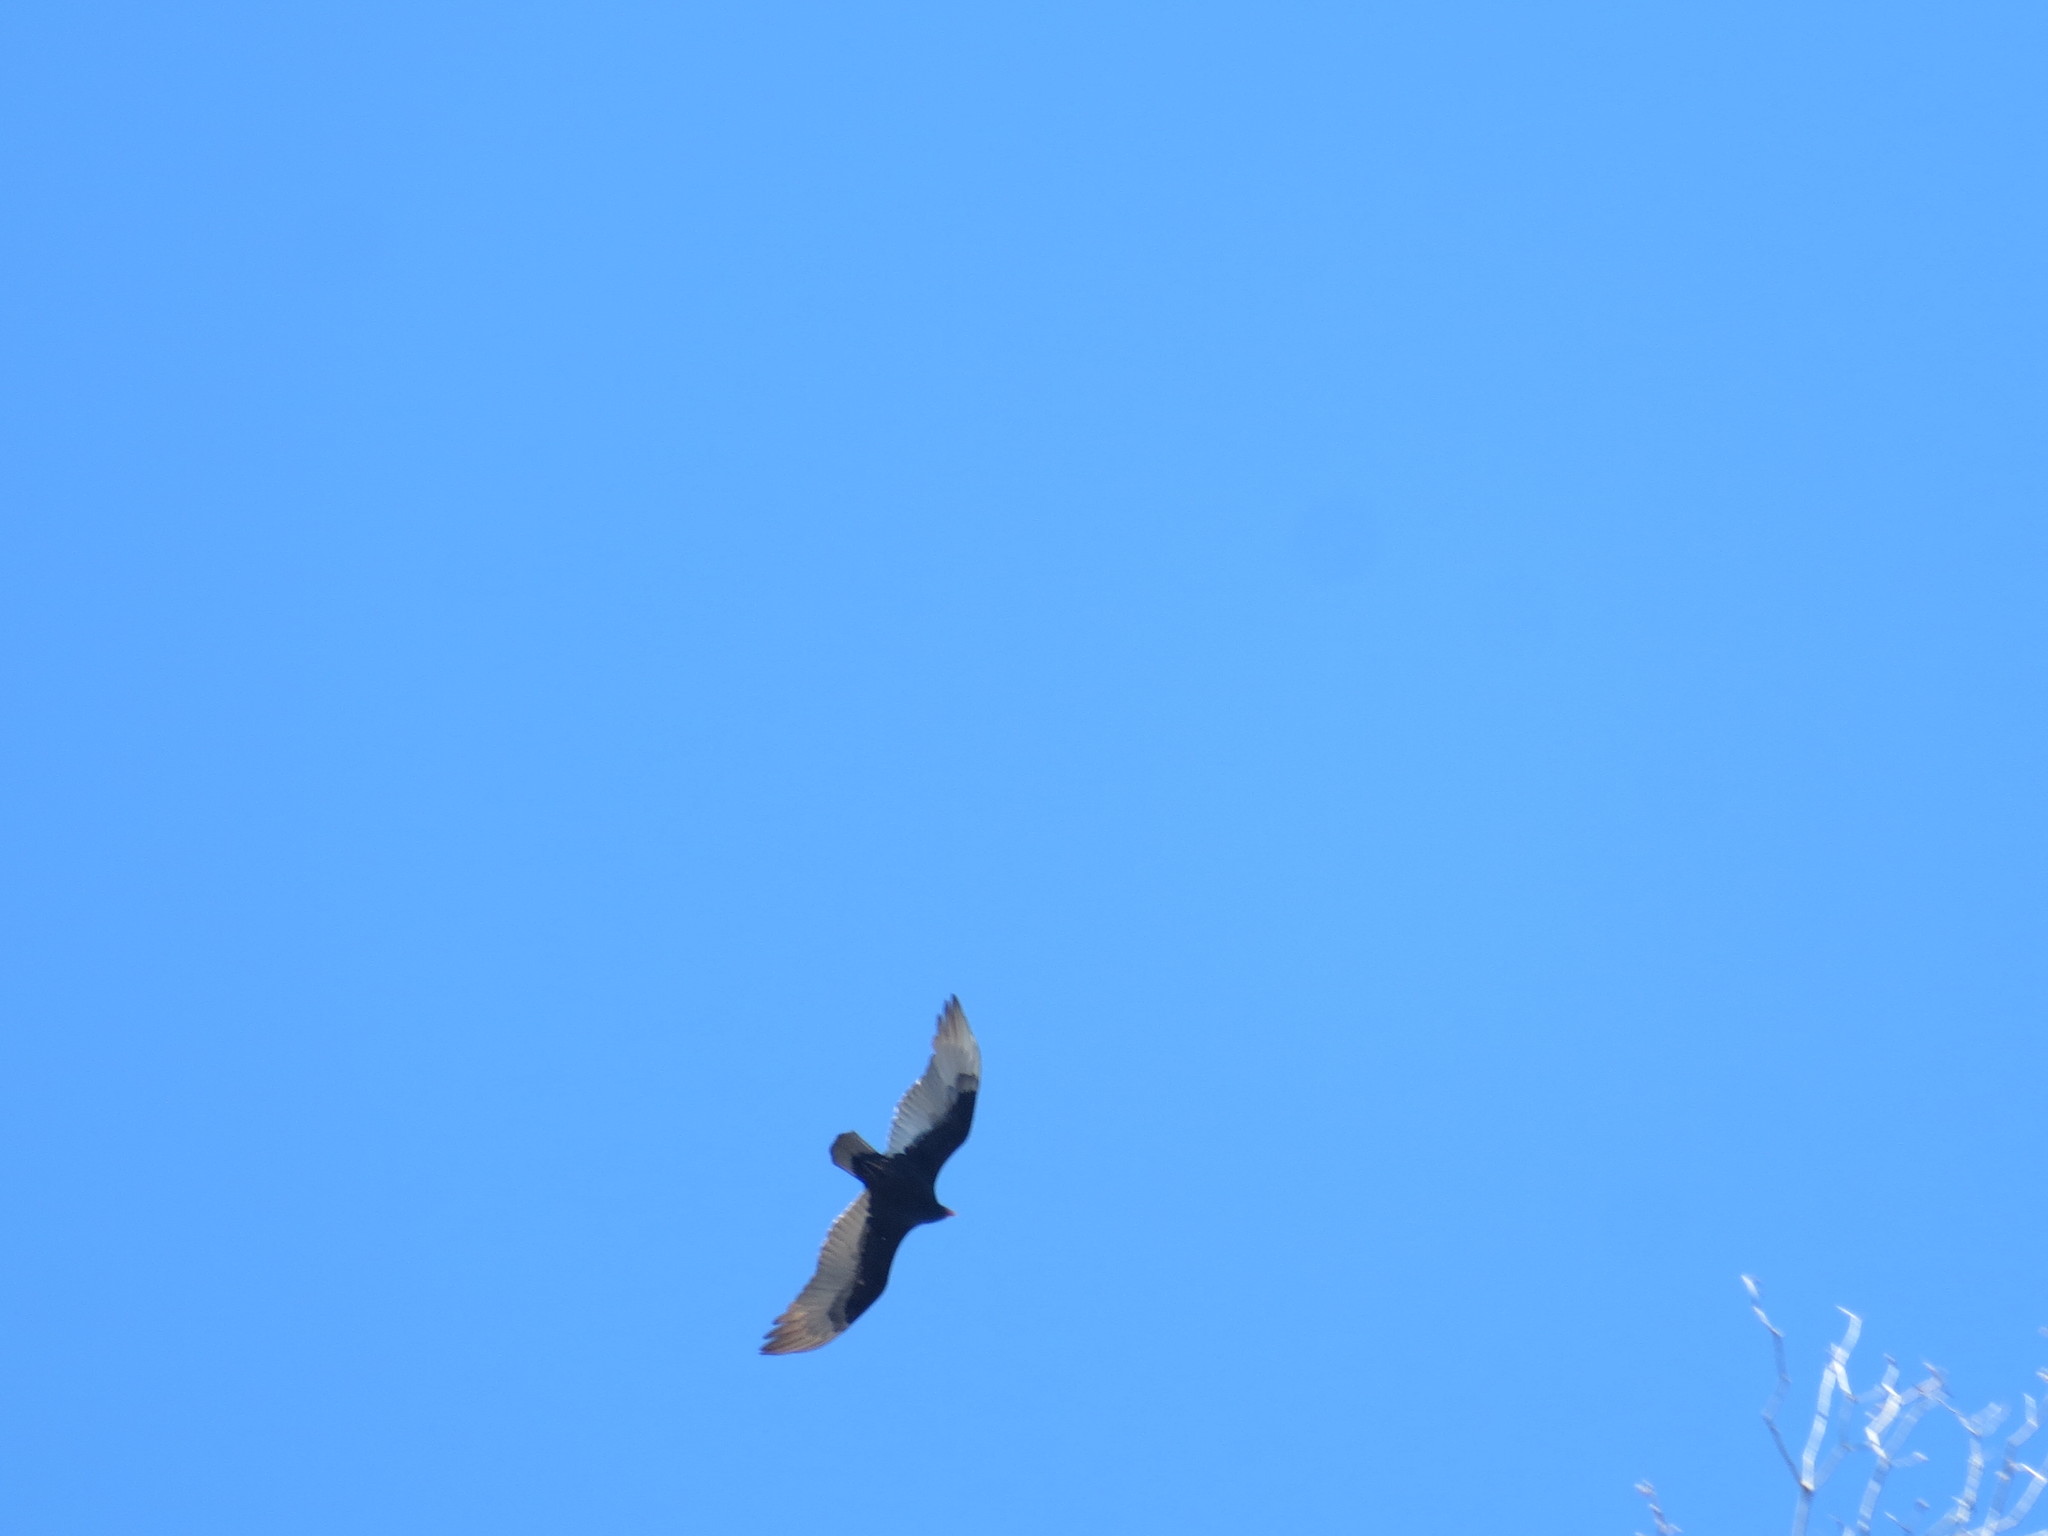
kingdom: Animalia
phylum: Chordata
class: Aves
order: Accipitriformes
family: Cathartidae
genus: Cathartes
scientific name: Cathartes aura
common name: Turkey vulture
